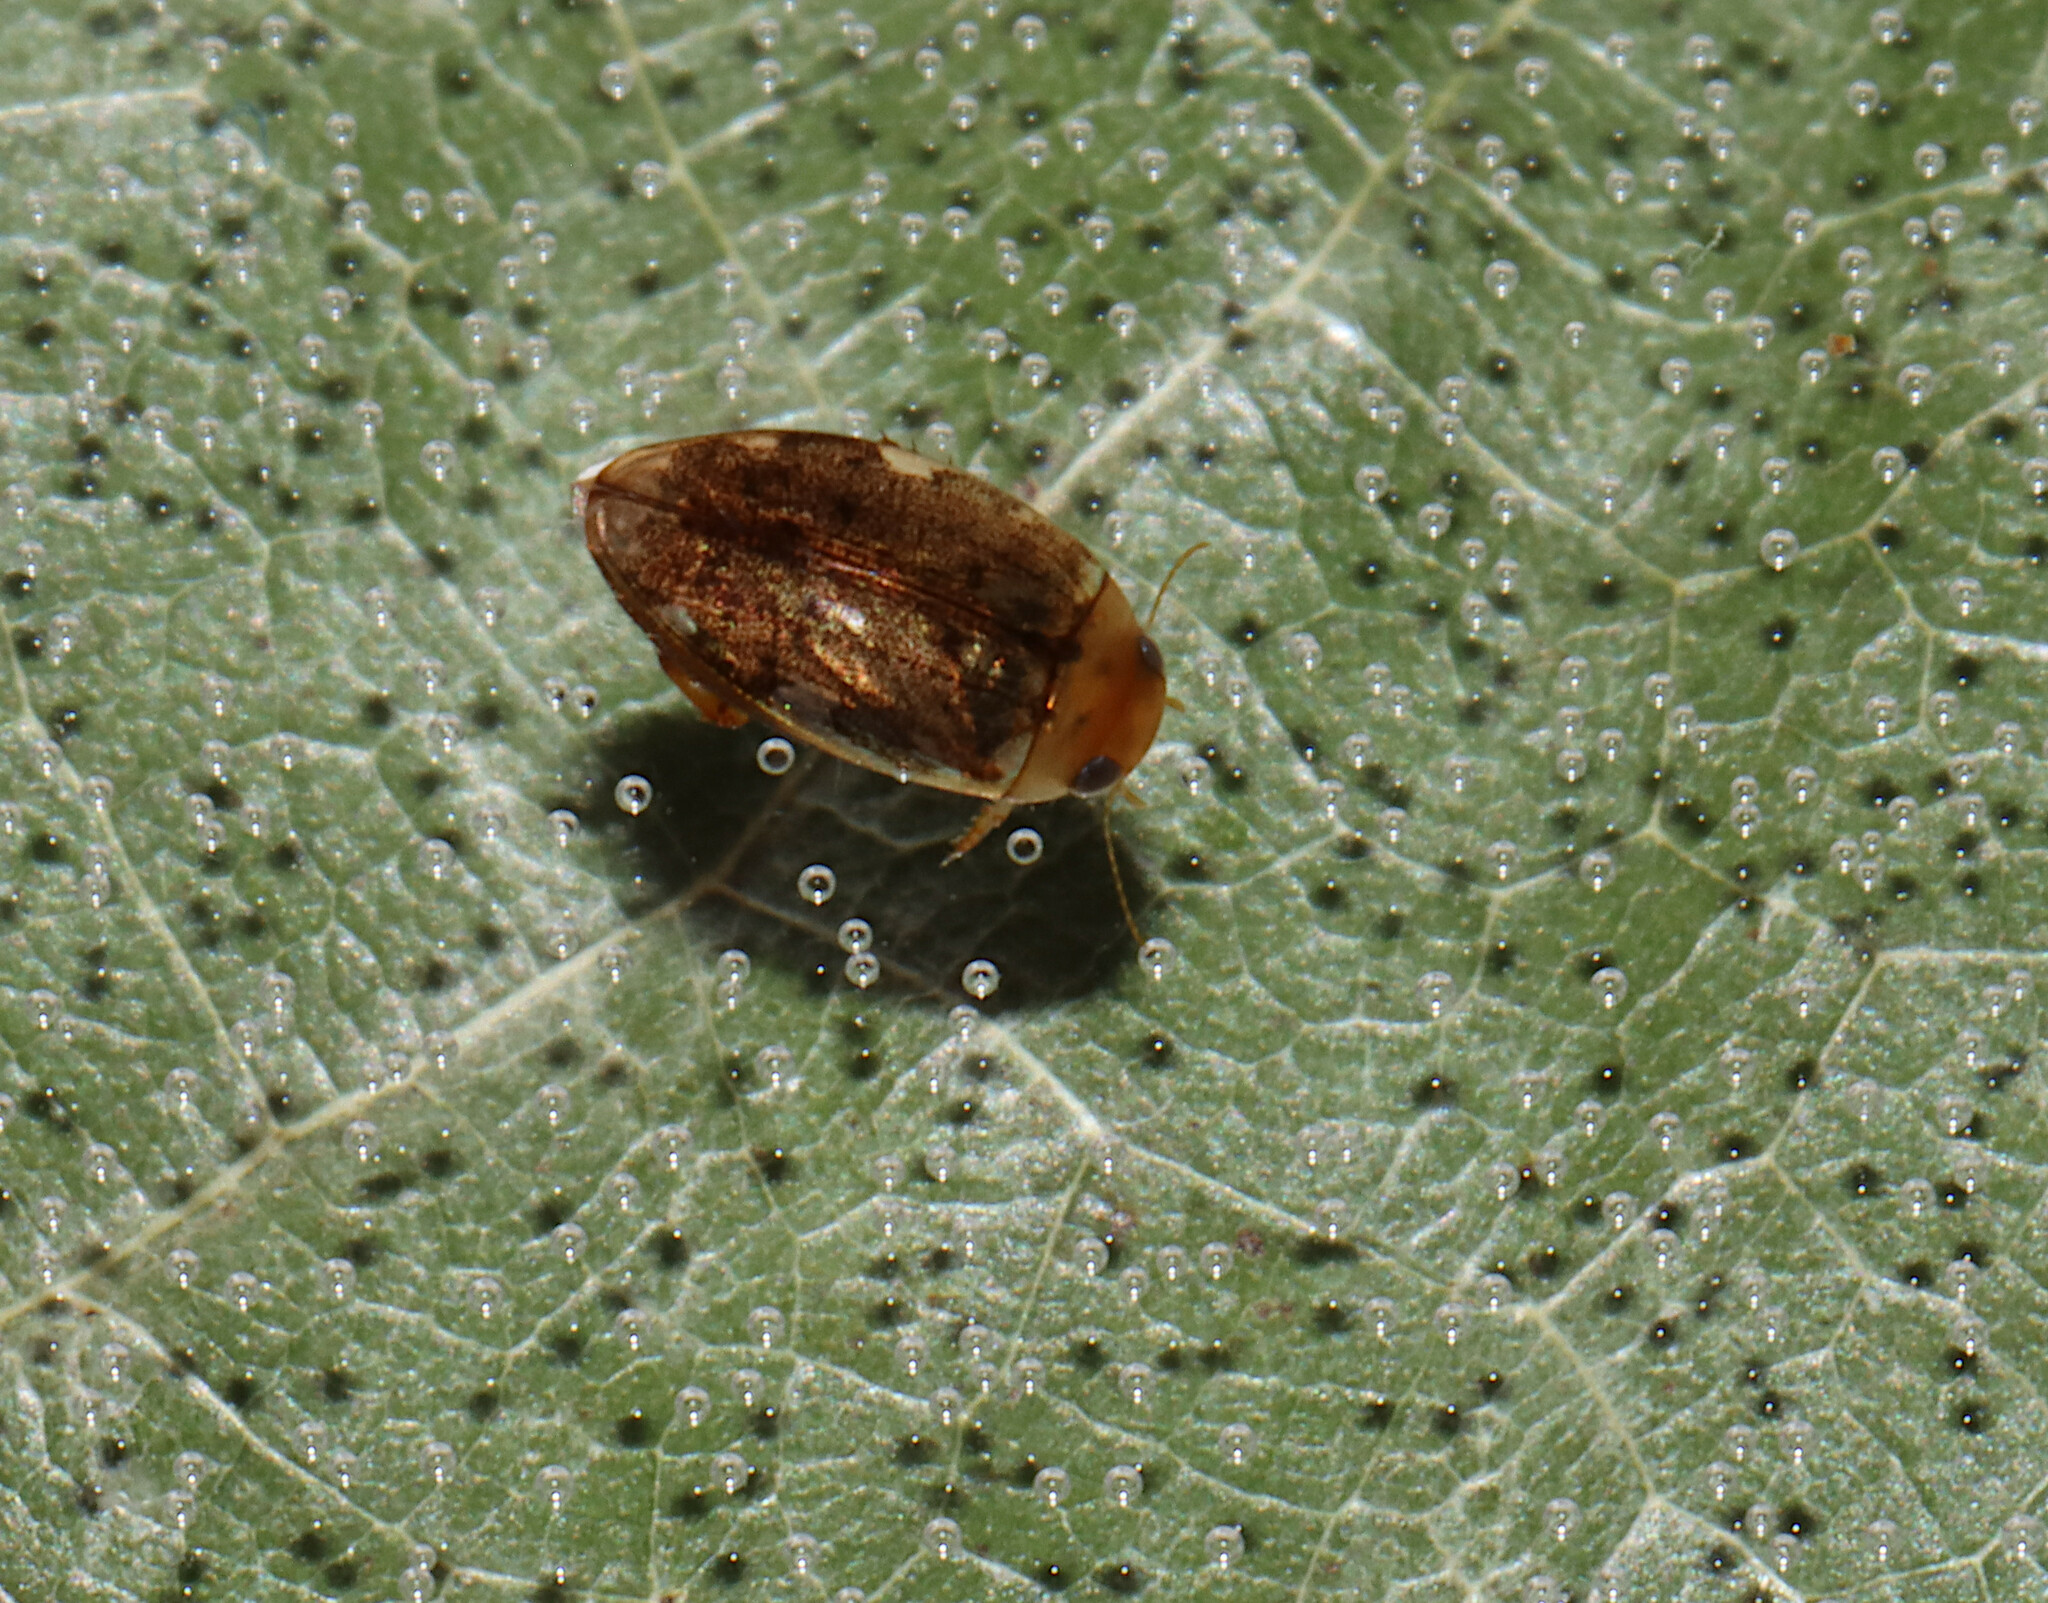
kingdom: Animalia
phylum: Arthropoda
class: Insecta
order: Coleoptera
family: Dytiscidae
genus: Laccophilus
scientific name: Laccophilus proximus
